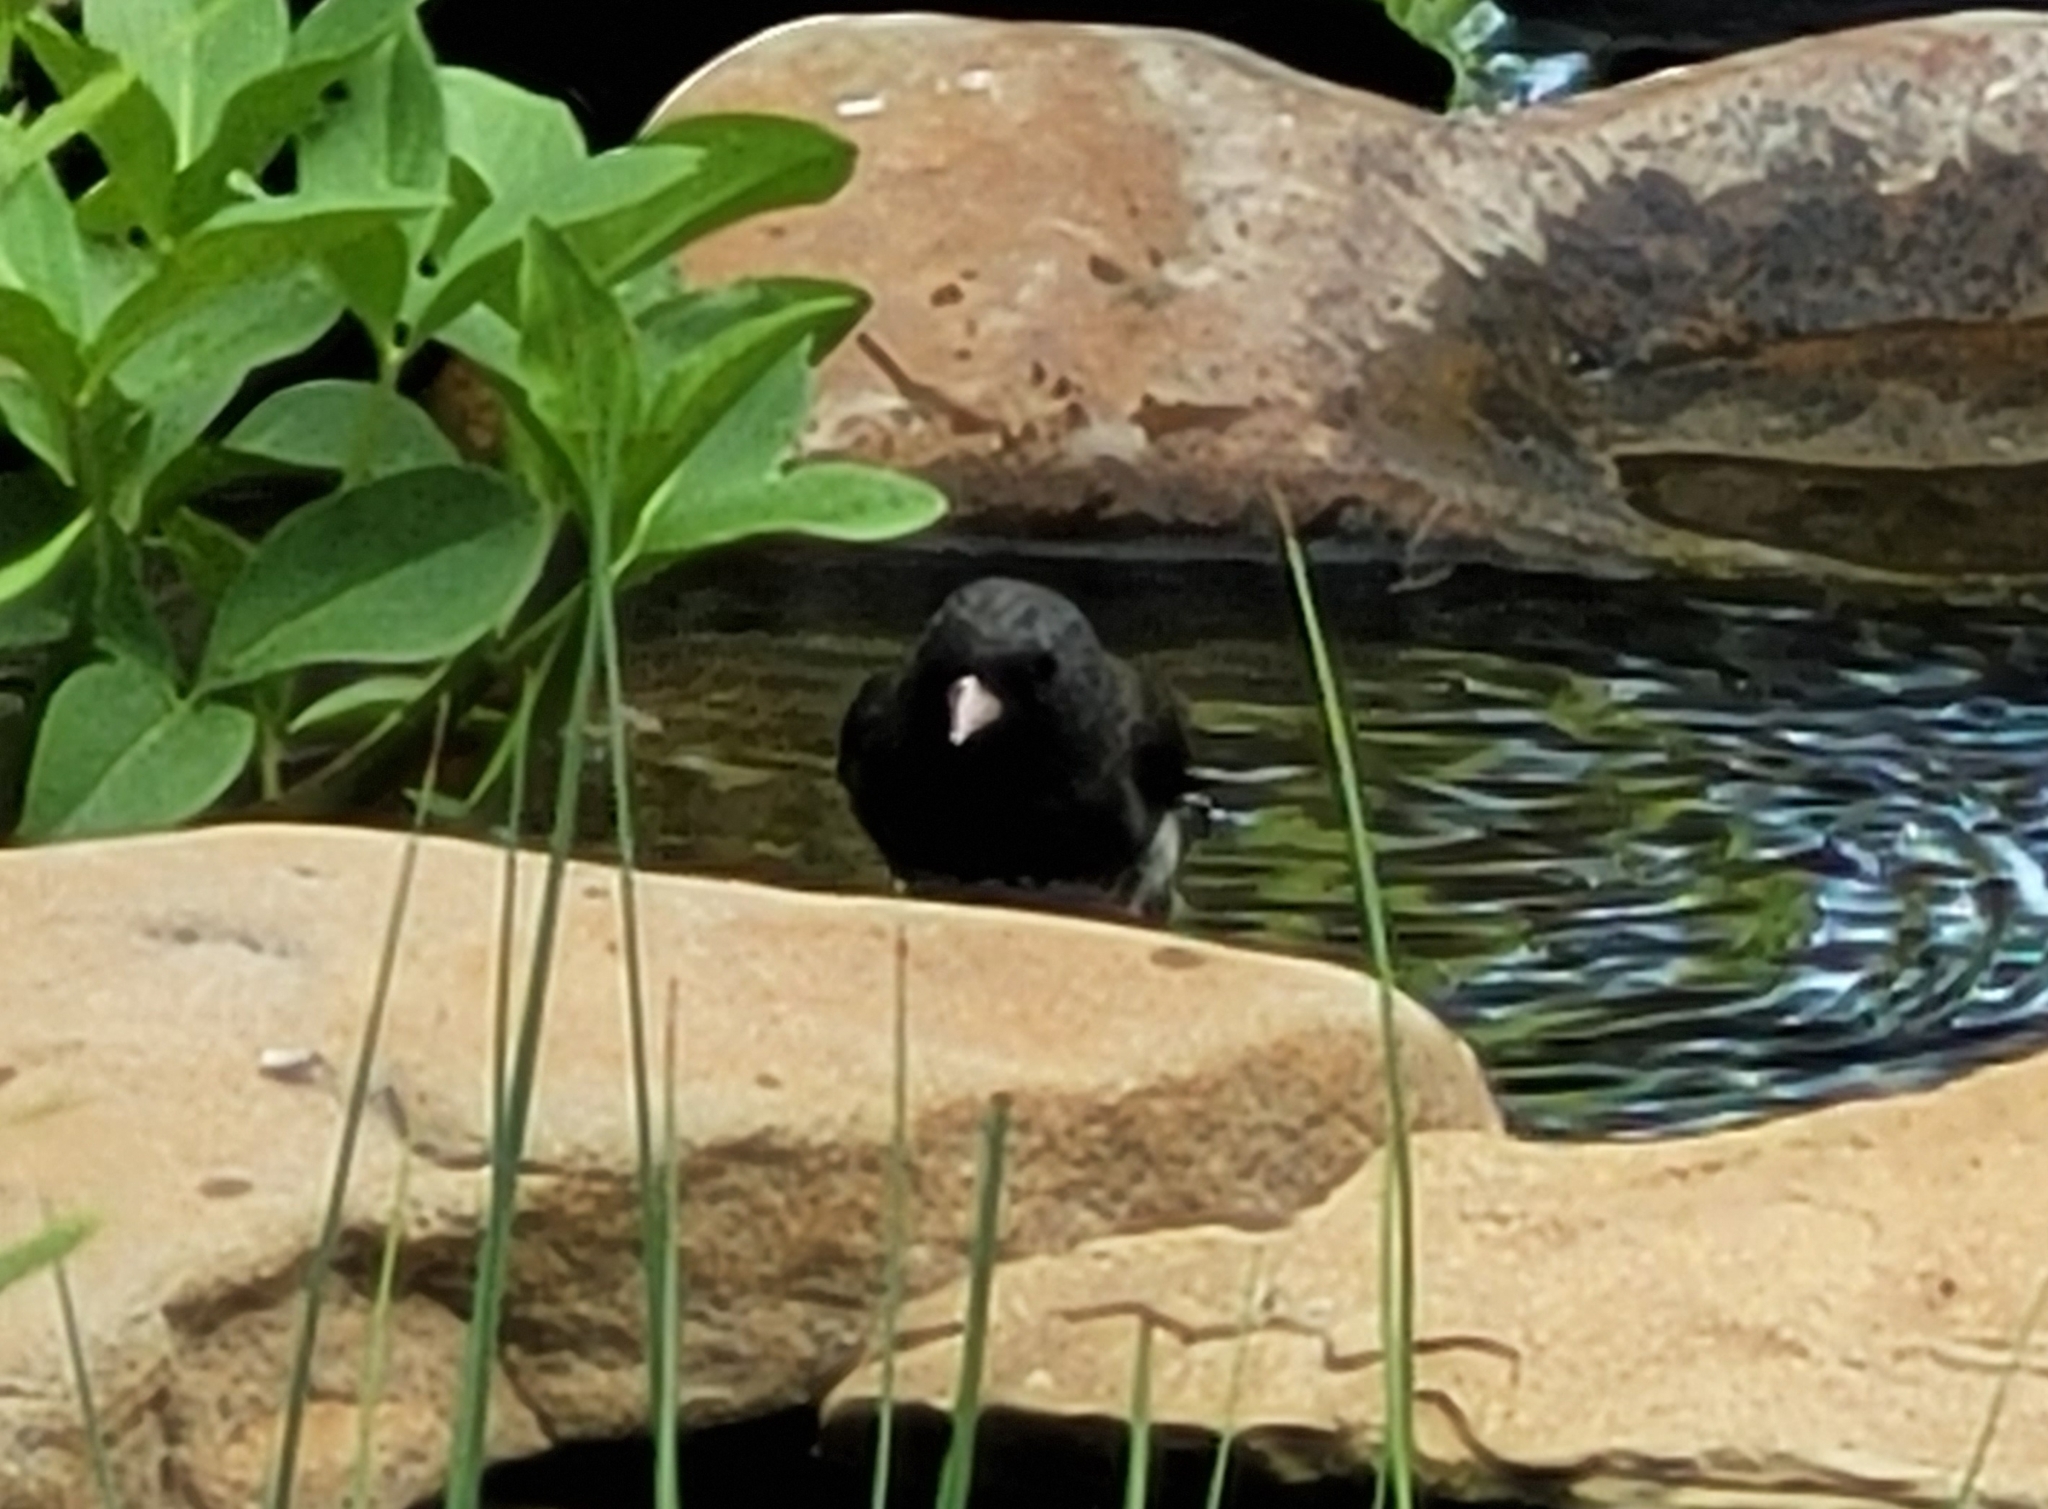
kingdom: Animalia
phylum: Chordata
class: Aves
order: Passeriformes
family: Passerellidae
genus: Junco
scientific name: Junco hyemalis
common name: Dark-eyed junco
